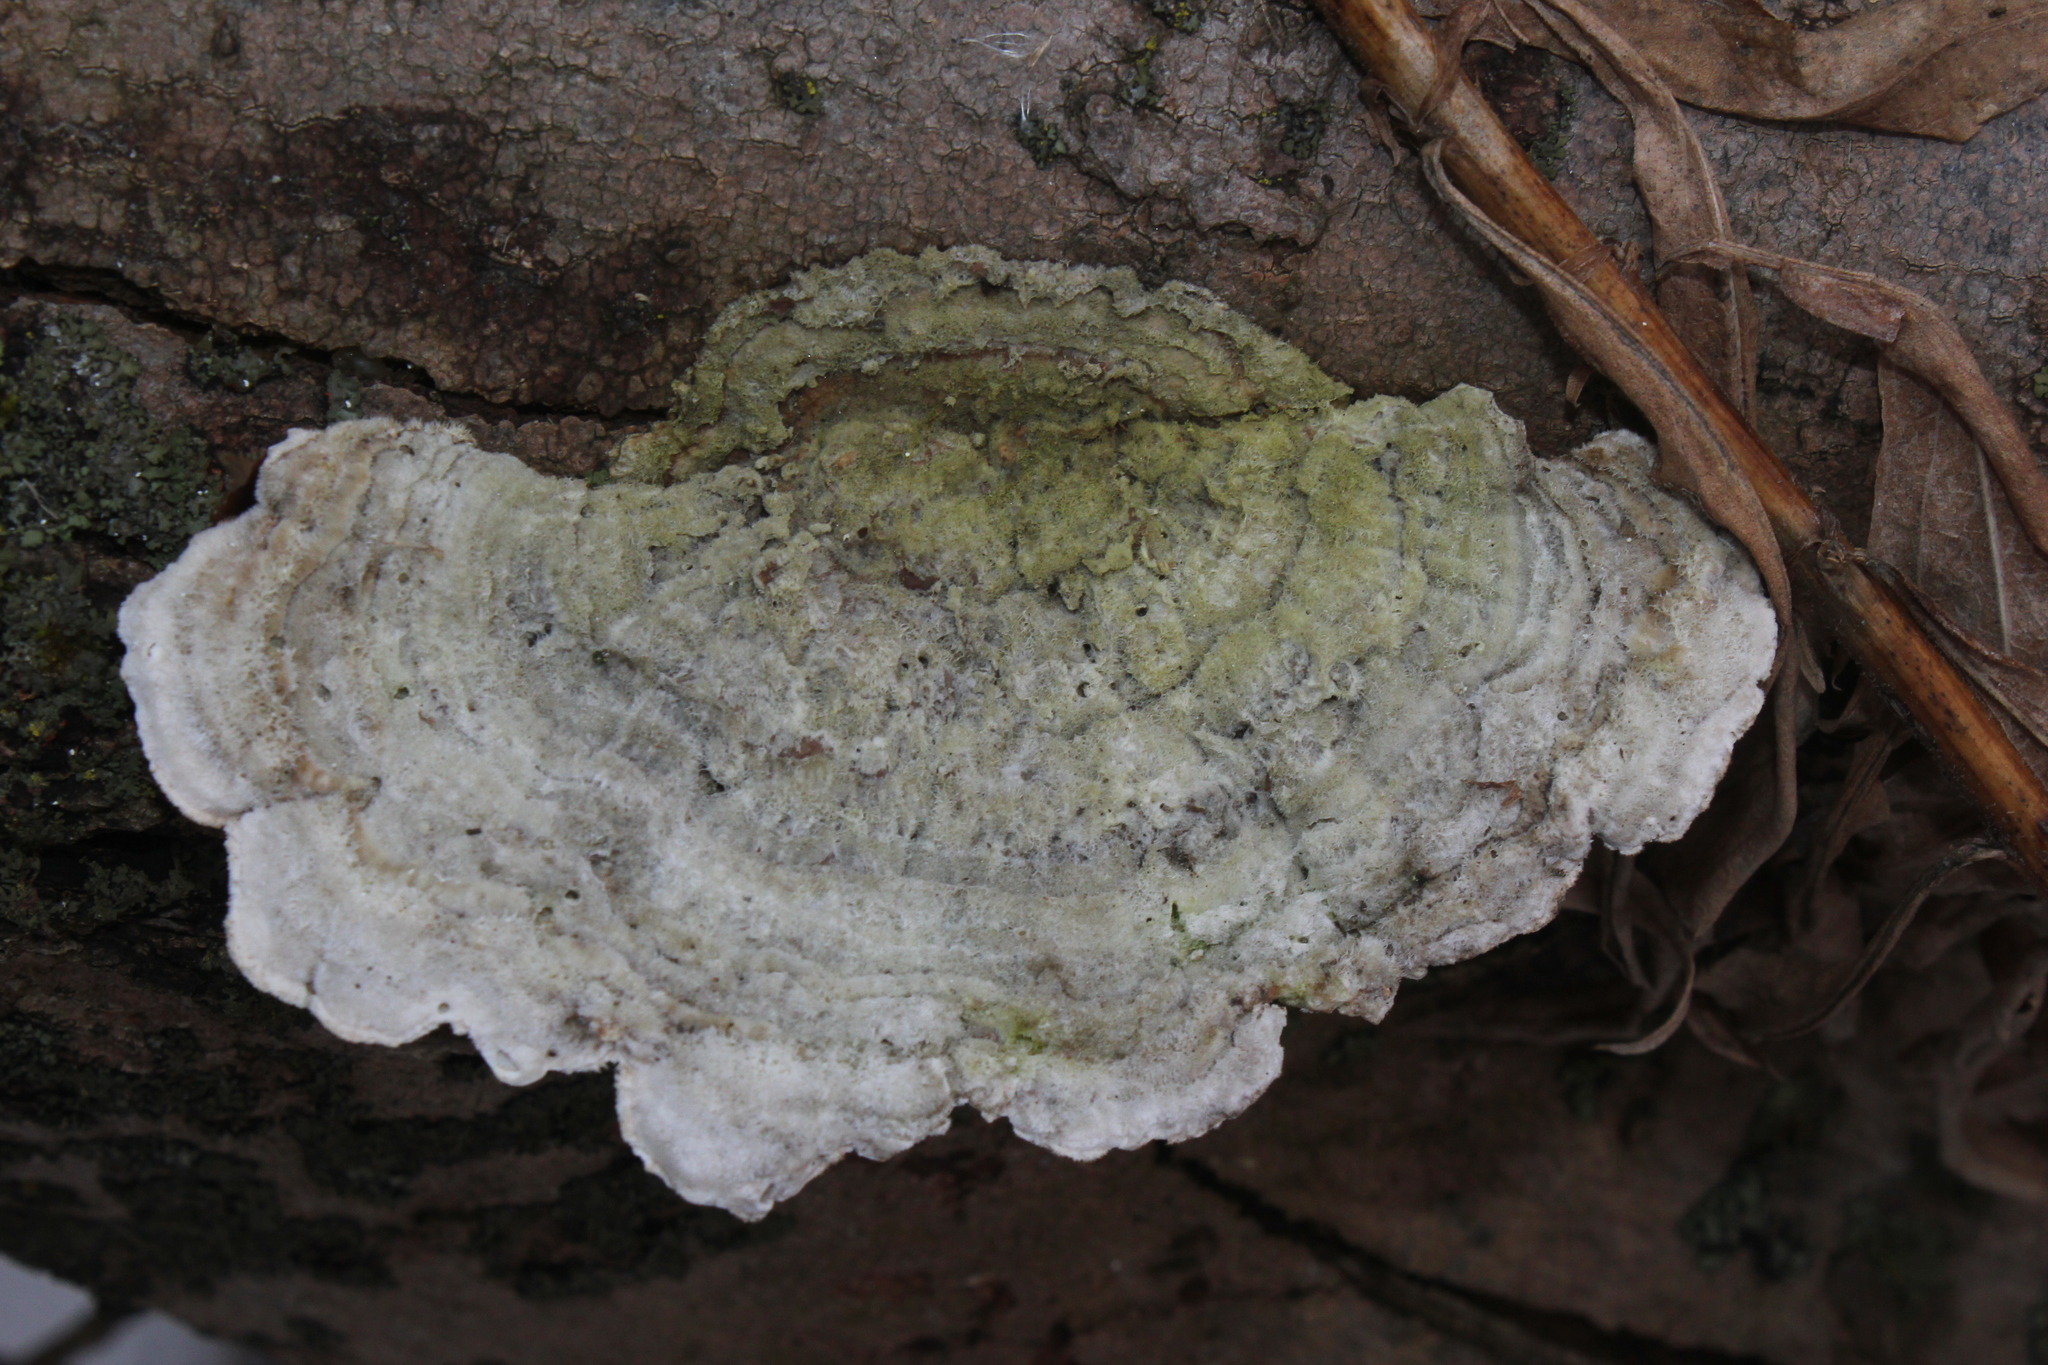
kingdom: Fungi
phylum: Basidiomycota
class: Agaricomycetes
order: Polyporales
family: Polyporaceae
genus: Trametes
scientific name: Trametes hirsuta
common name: Hairy bracket
